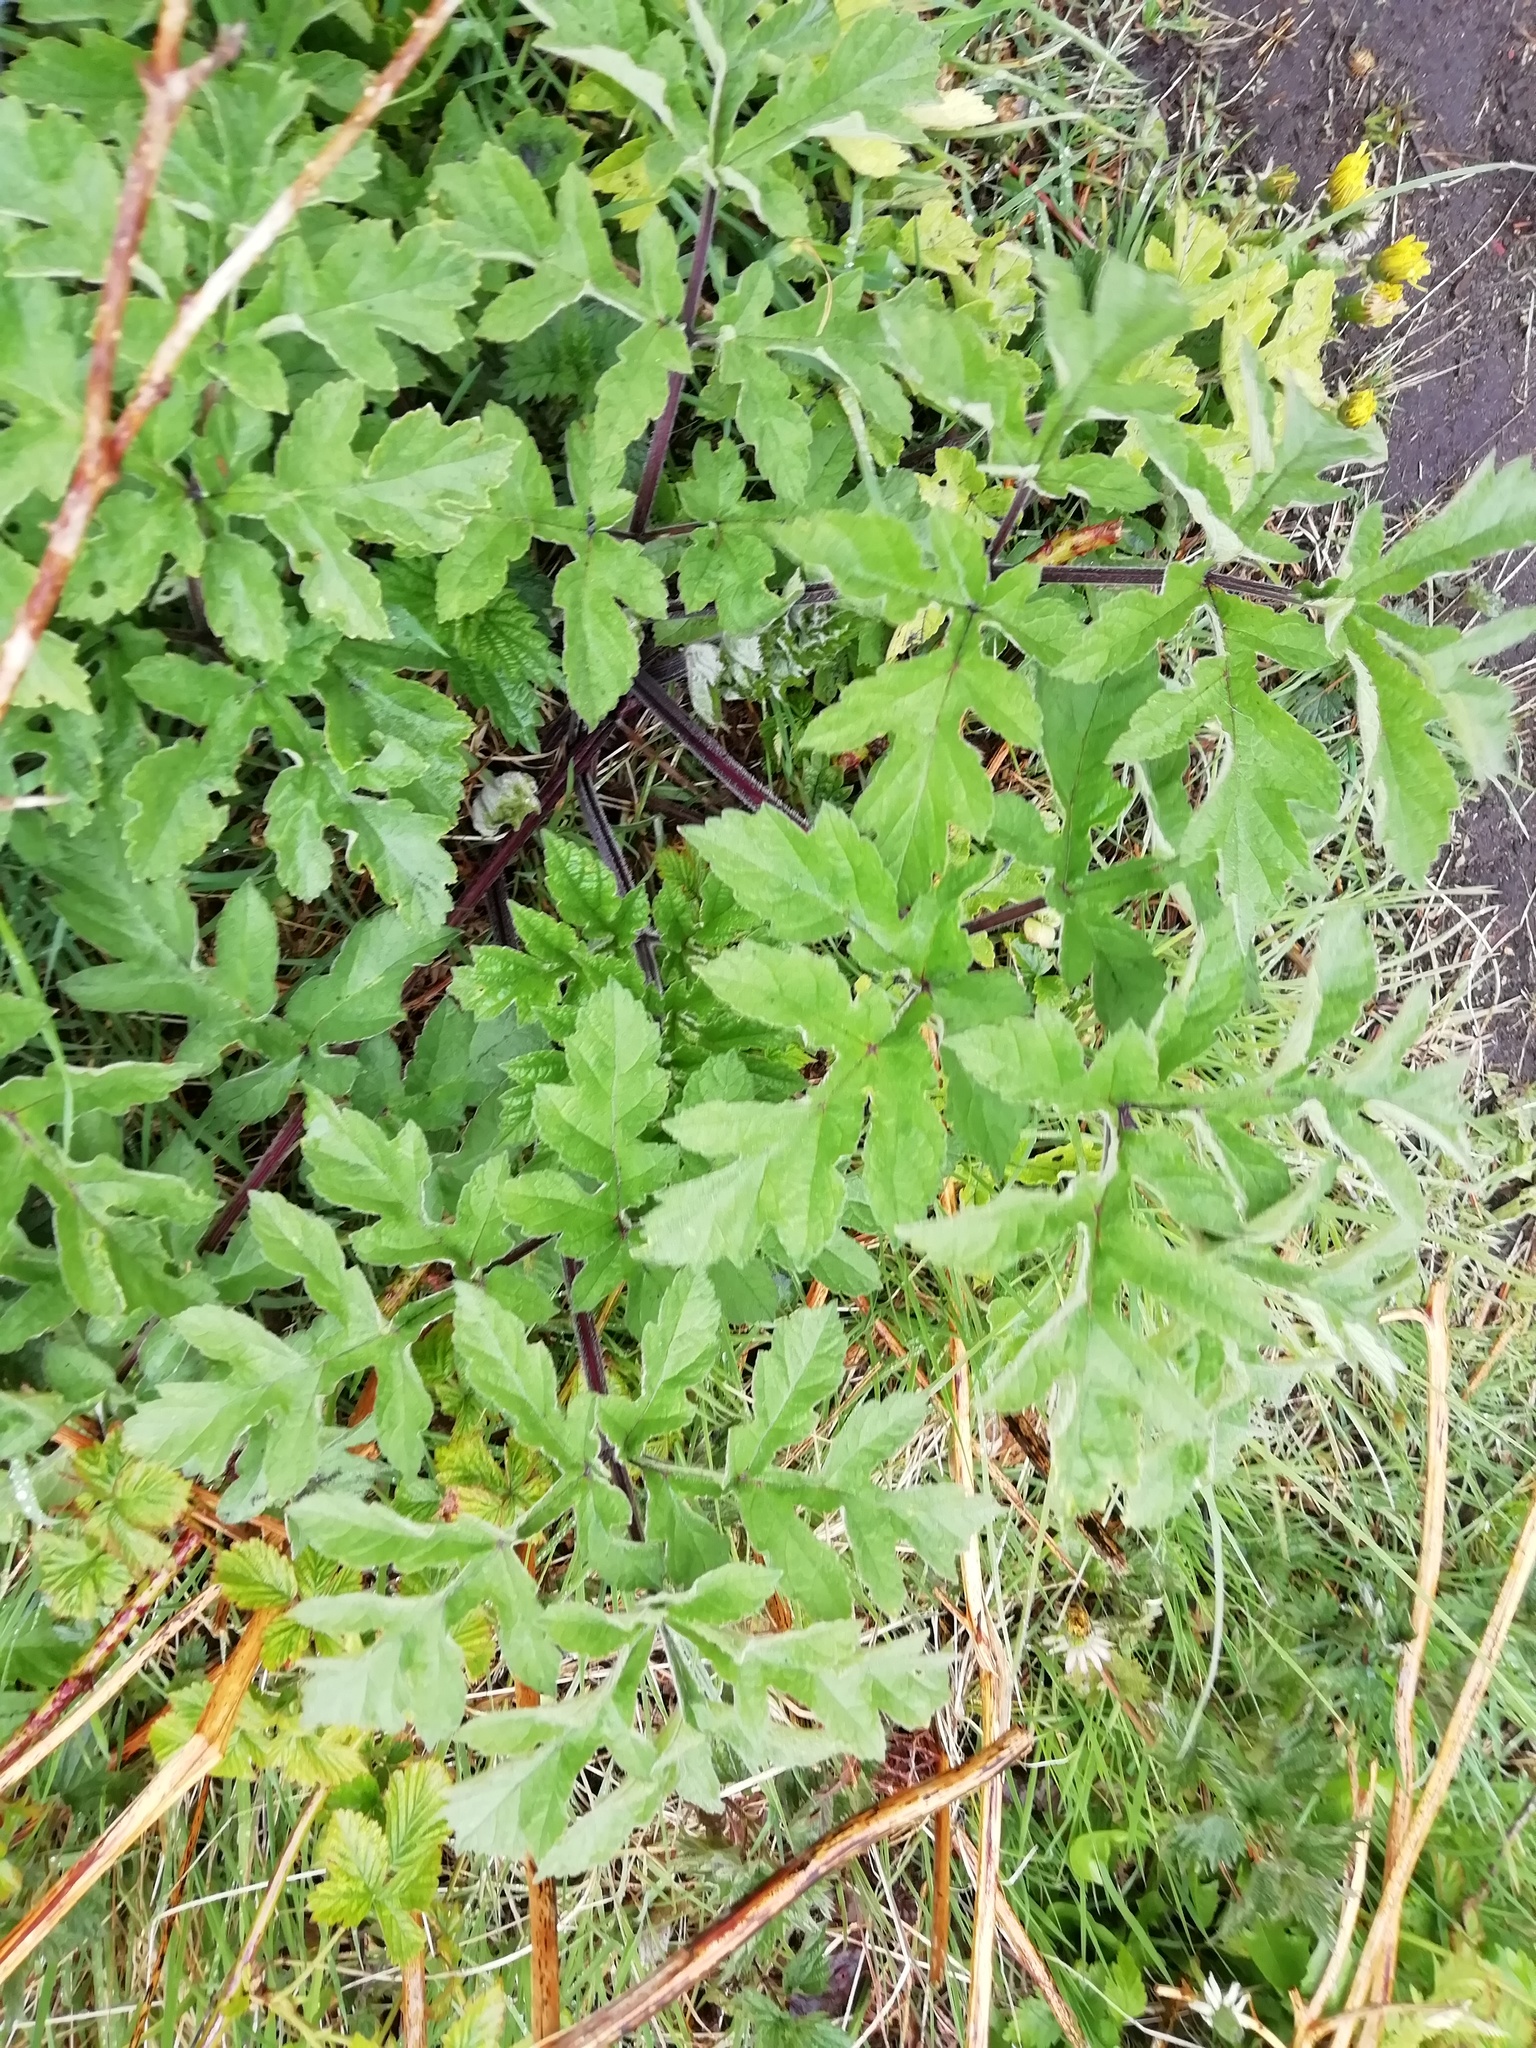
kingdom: Plantae
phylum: Tracheophyta
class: Magnoliopsida
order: Apiales
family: Apiaceae
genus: Heracleum
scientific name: Heracleum sphondylium
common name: Hogweed
